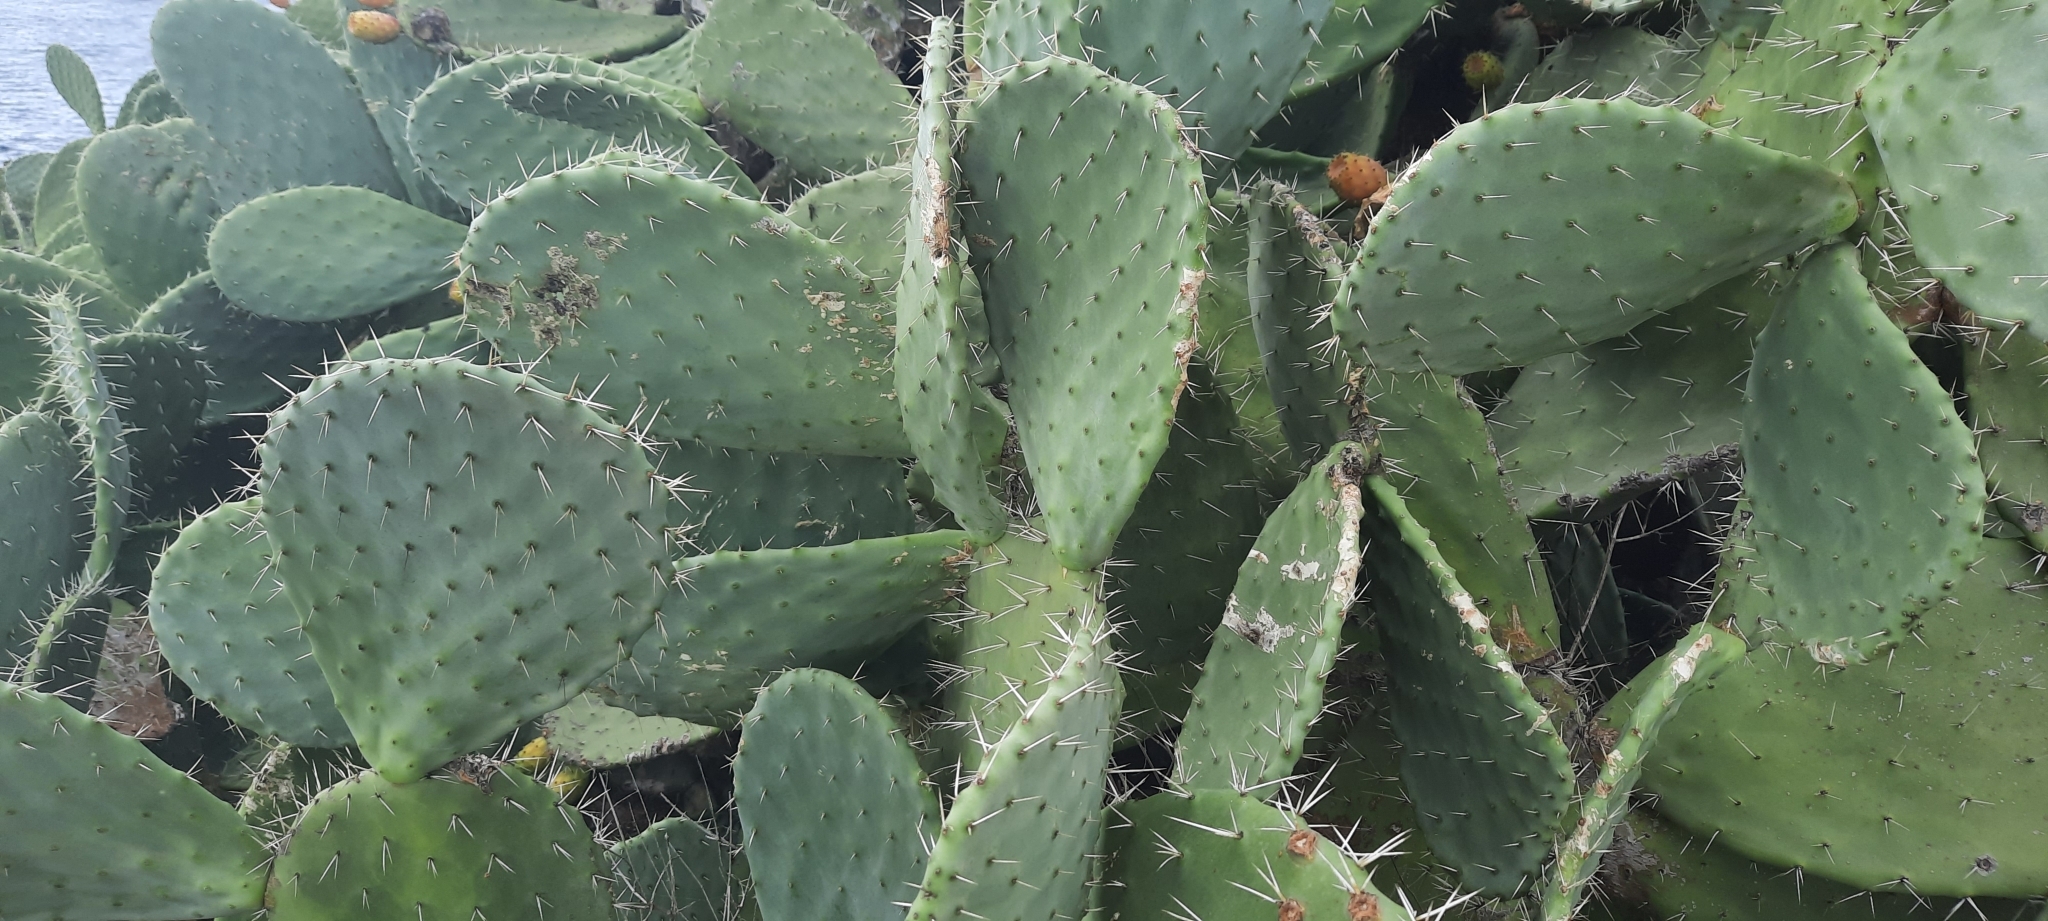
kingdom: Plantae
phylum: Tracheophyta
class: Magnoliopsida
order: Caryophyllales
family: Cactaceae
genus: Opuntia
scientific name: Opuntia ficus-indica
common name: Barbary fig
